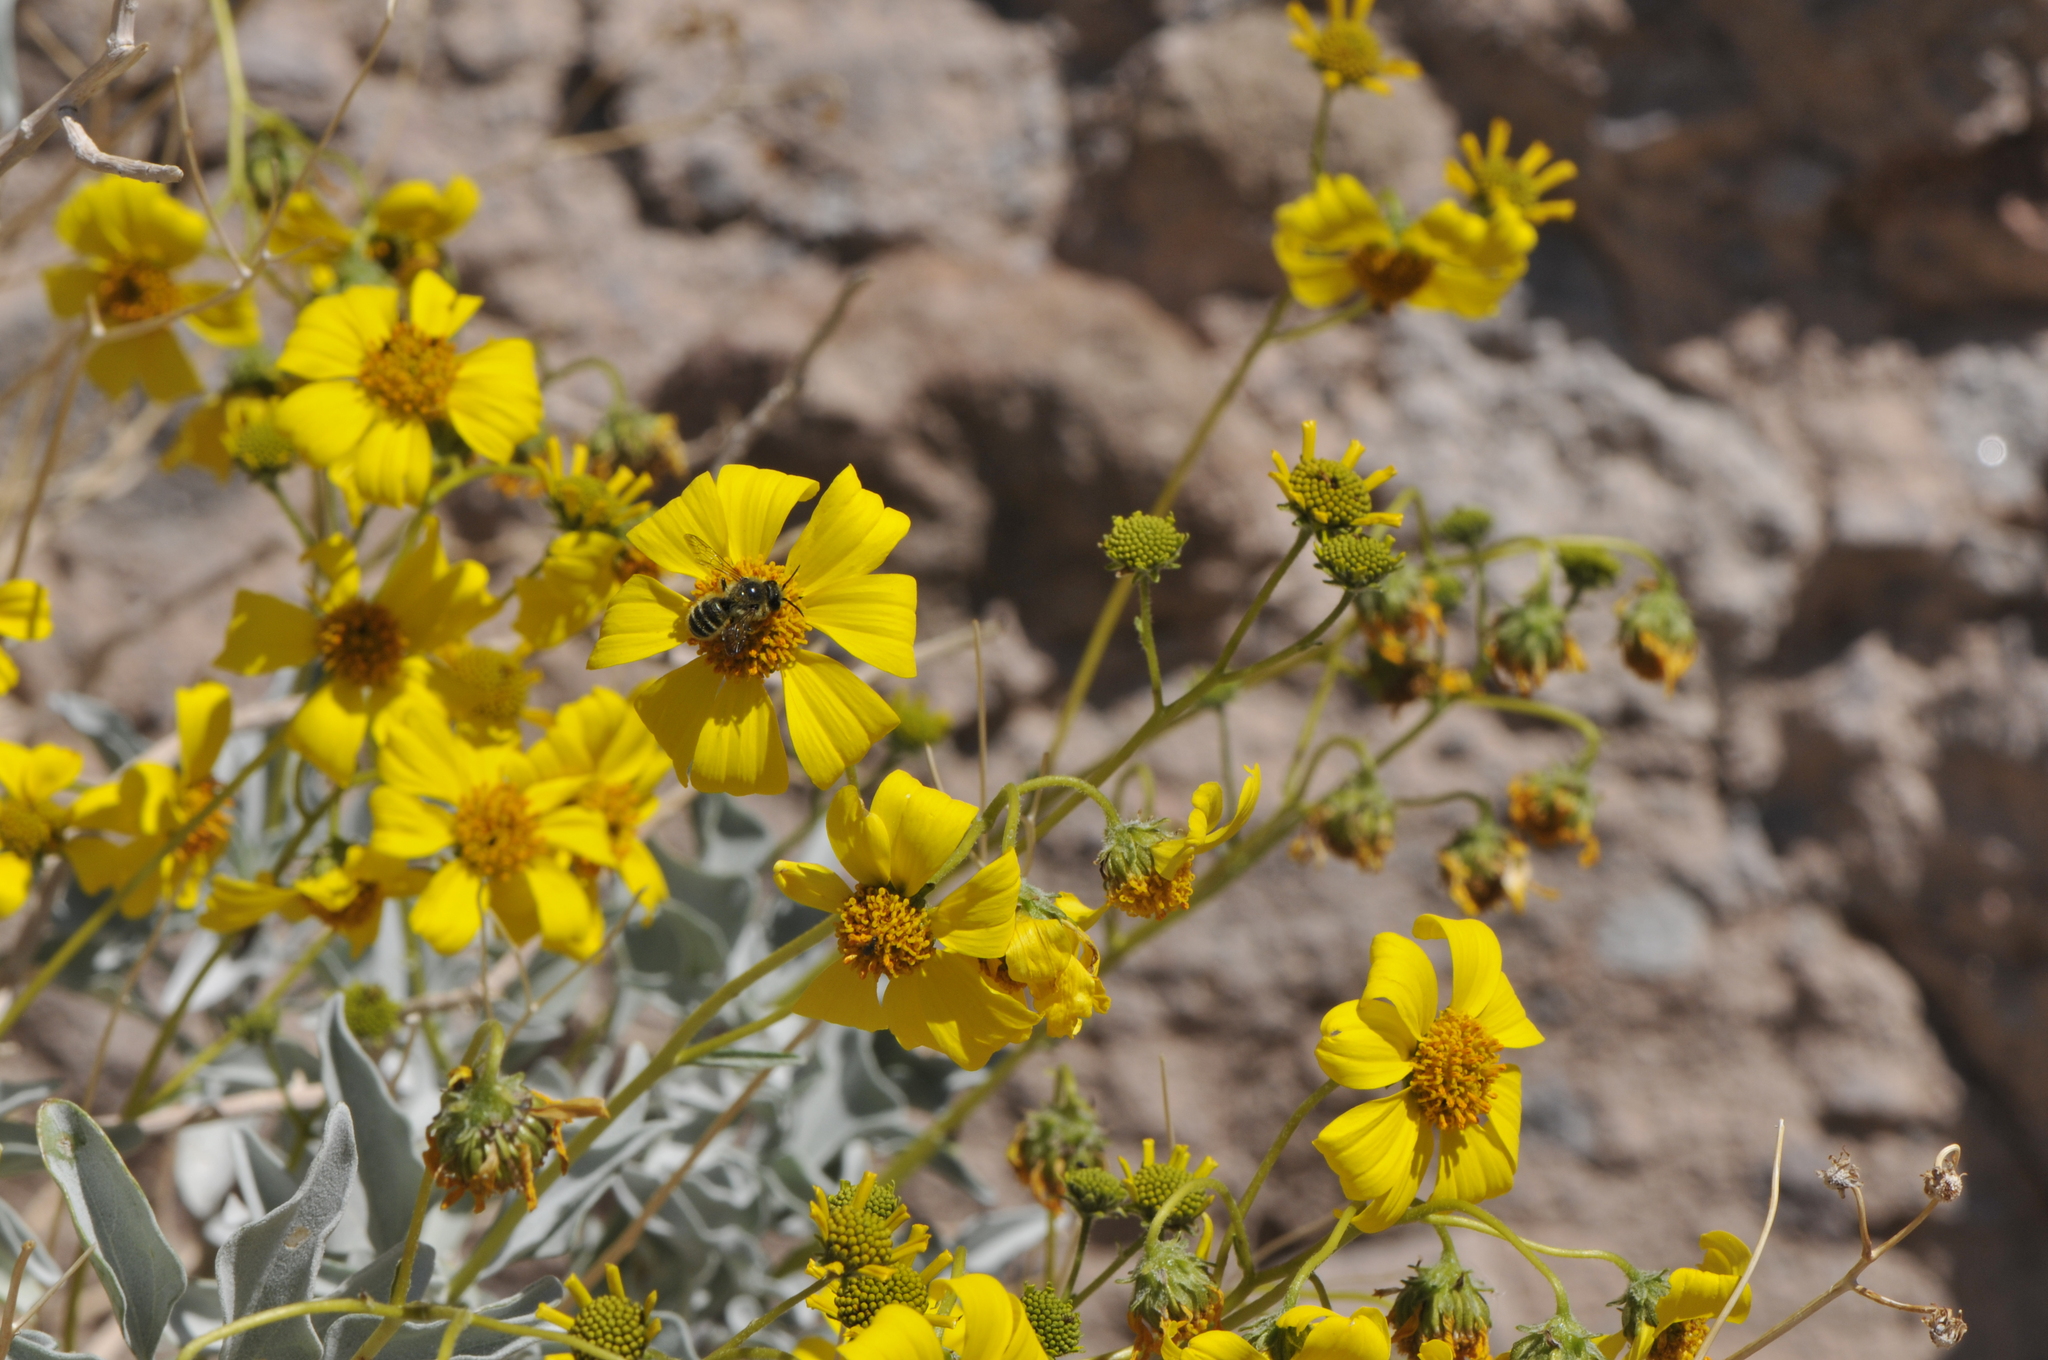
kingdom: Plantae
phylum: Tracheophyta
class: Magnoliopsida
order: Asterales
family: Asteraceae
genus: Encelia
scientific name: Encelia farinosa
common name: Brittlebush
